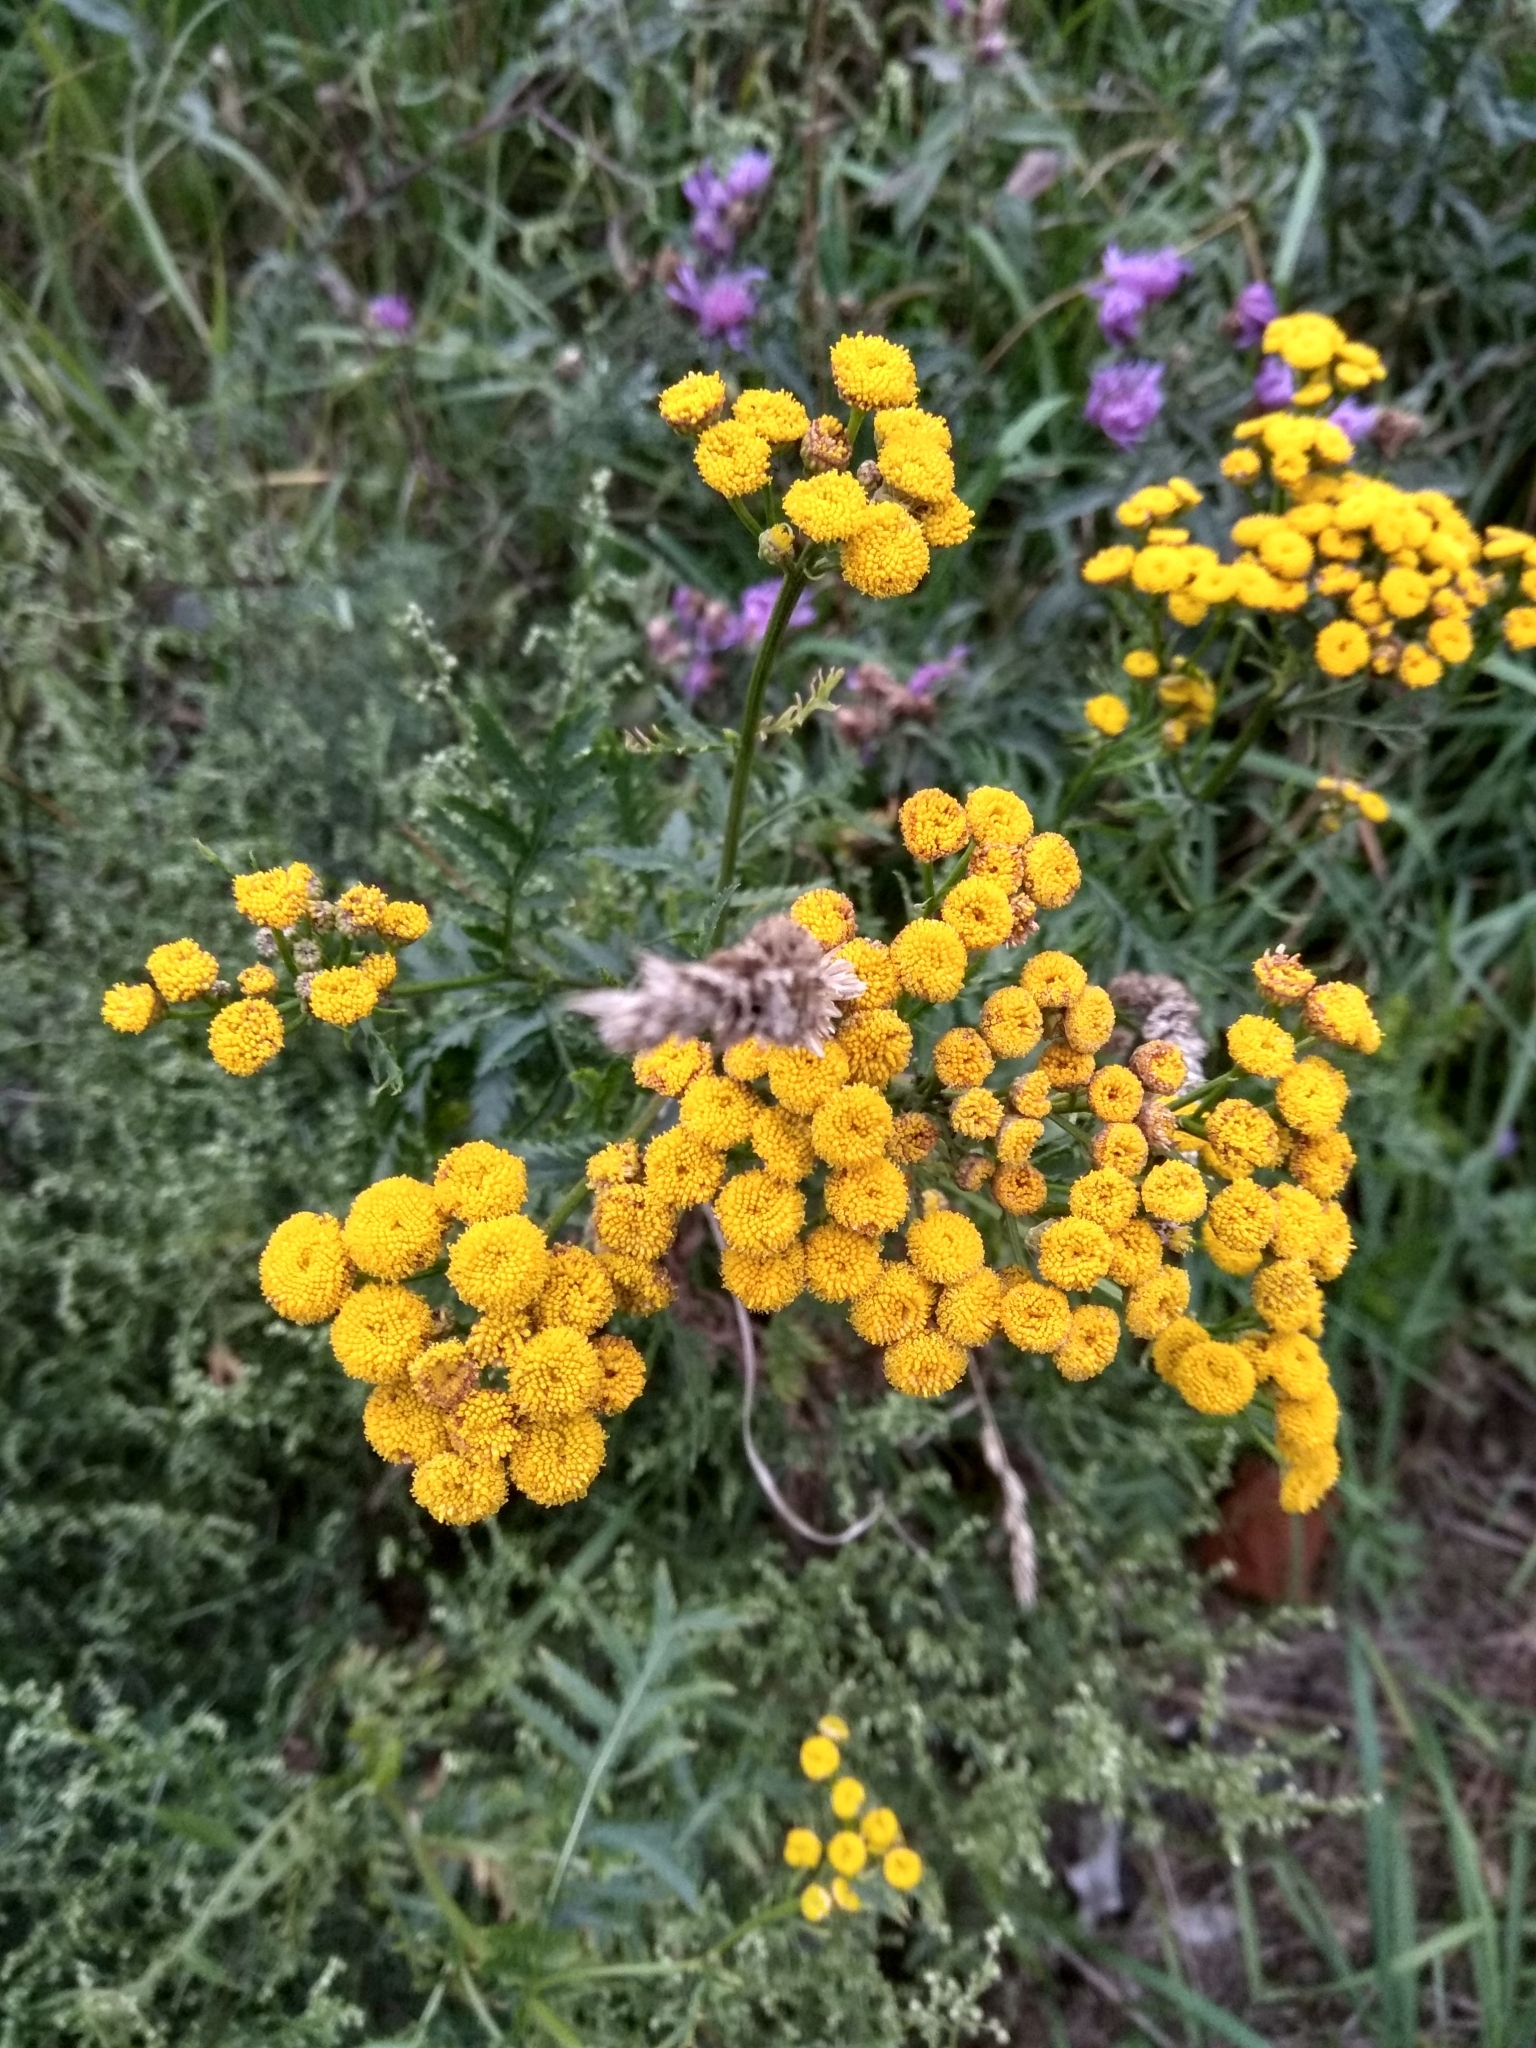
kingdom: Plantae
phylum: Tracheophyta
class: Magnoliopsida
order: Asterales
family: Asteraceae
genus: Tanacetum
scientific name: Tanacetum vulgare
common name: Common tansy
